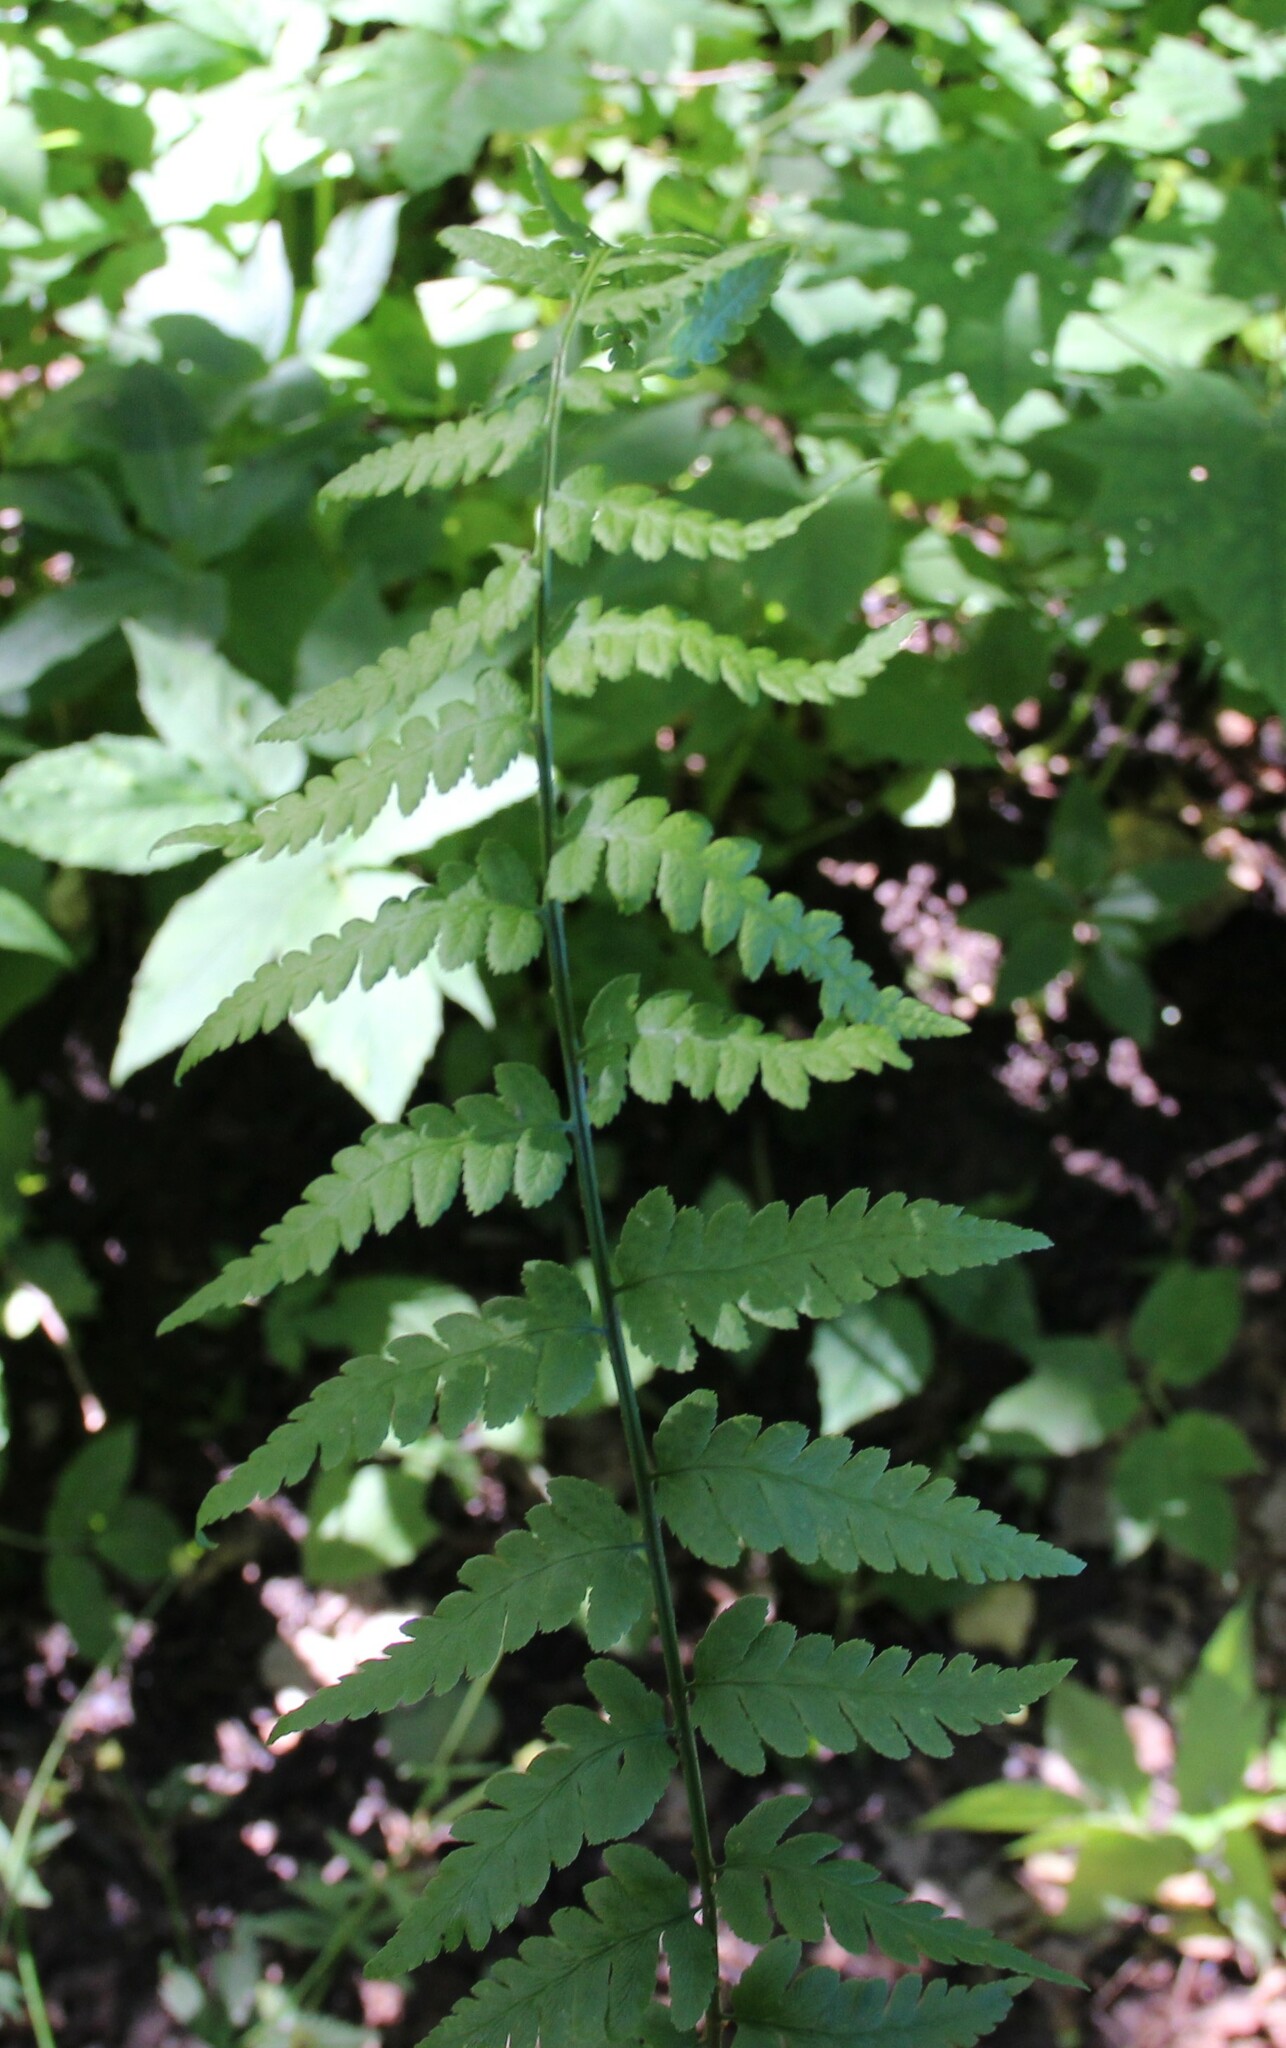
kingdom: Plantae
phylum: Tracheophyta
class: Polypodiopsida
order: Polypodiales
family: Dryopteridaceae
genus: Dryopteris
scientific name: Dryopteris cristata
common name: Crested wood fern
